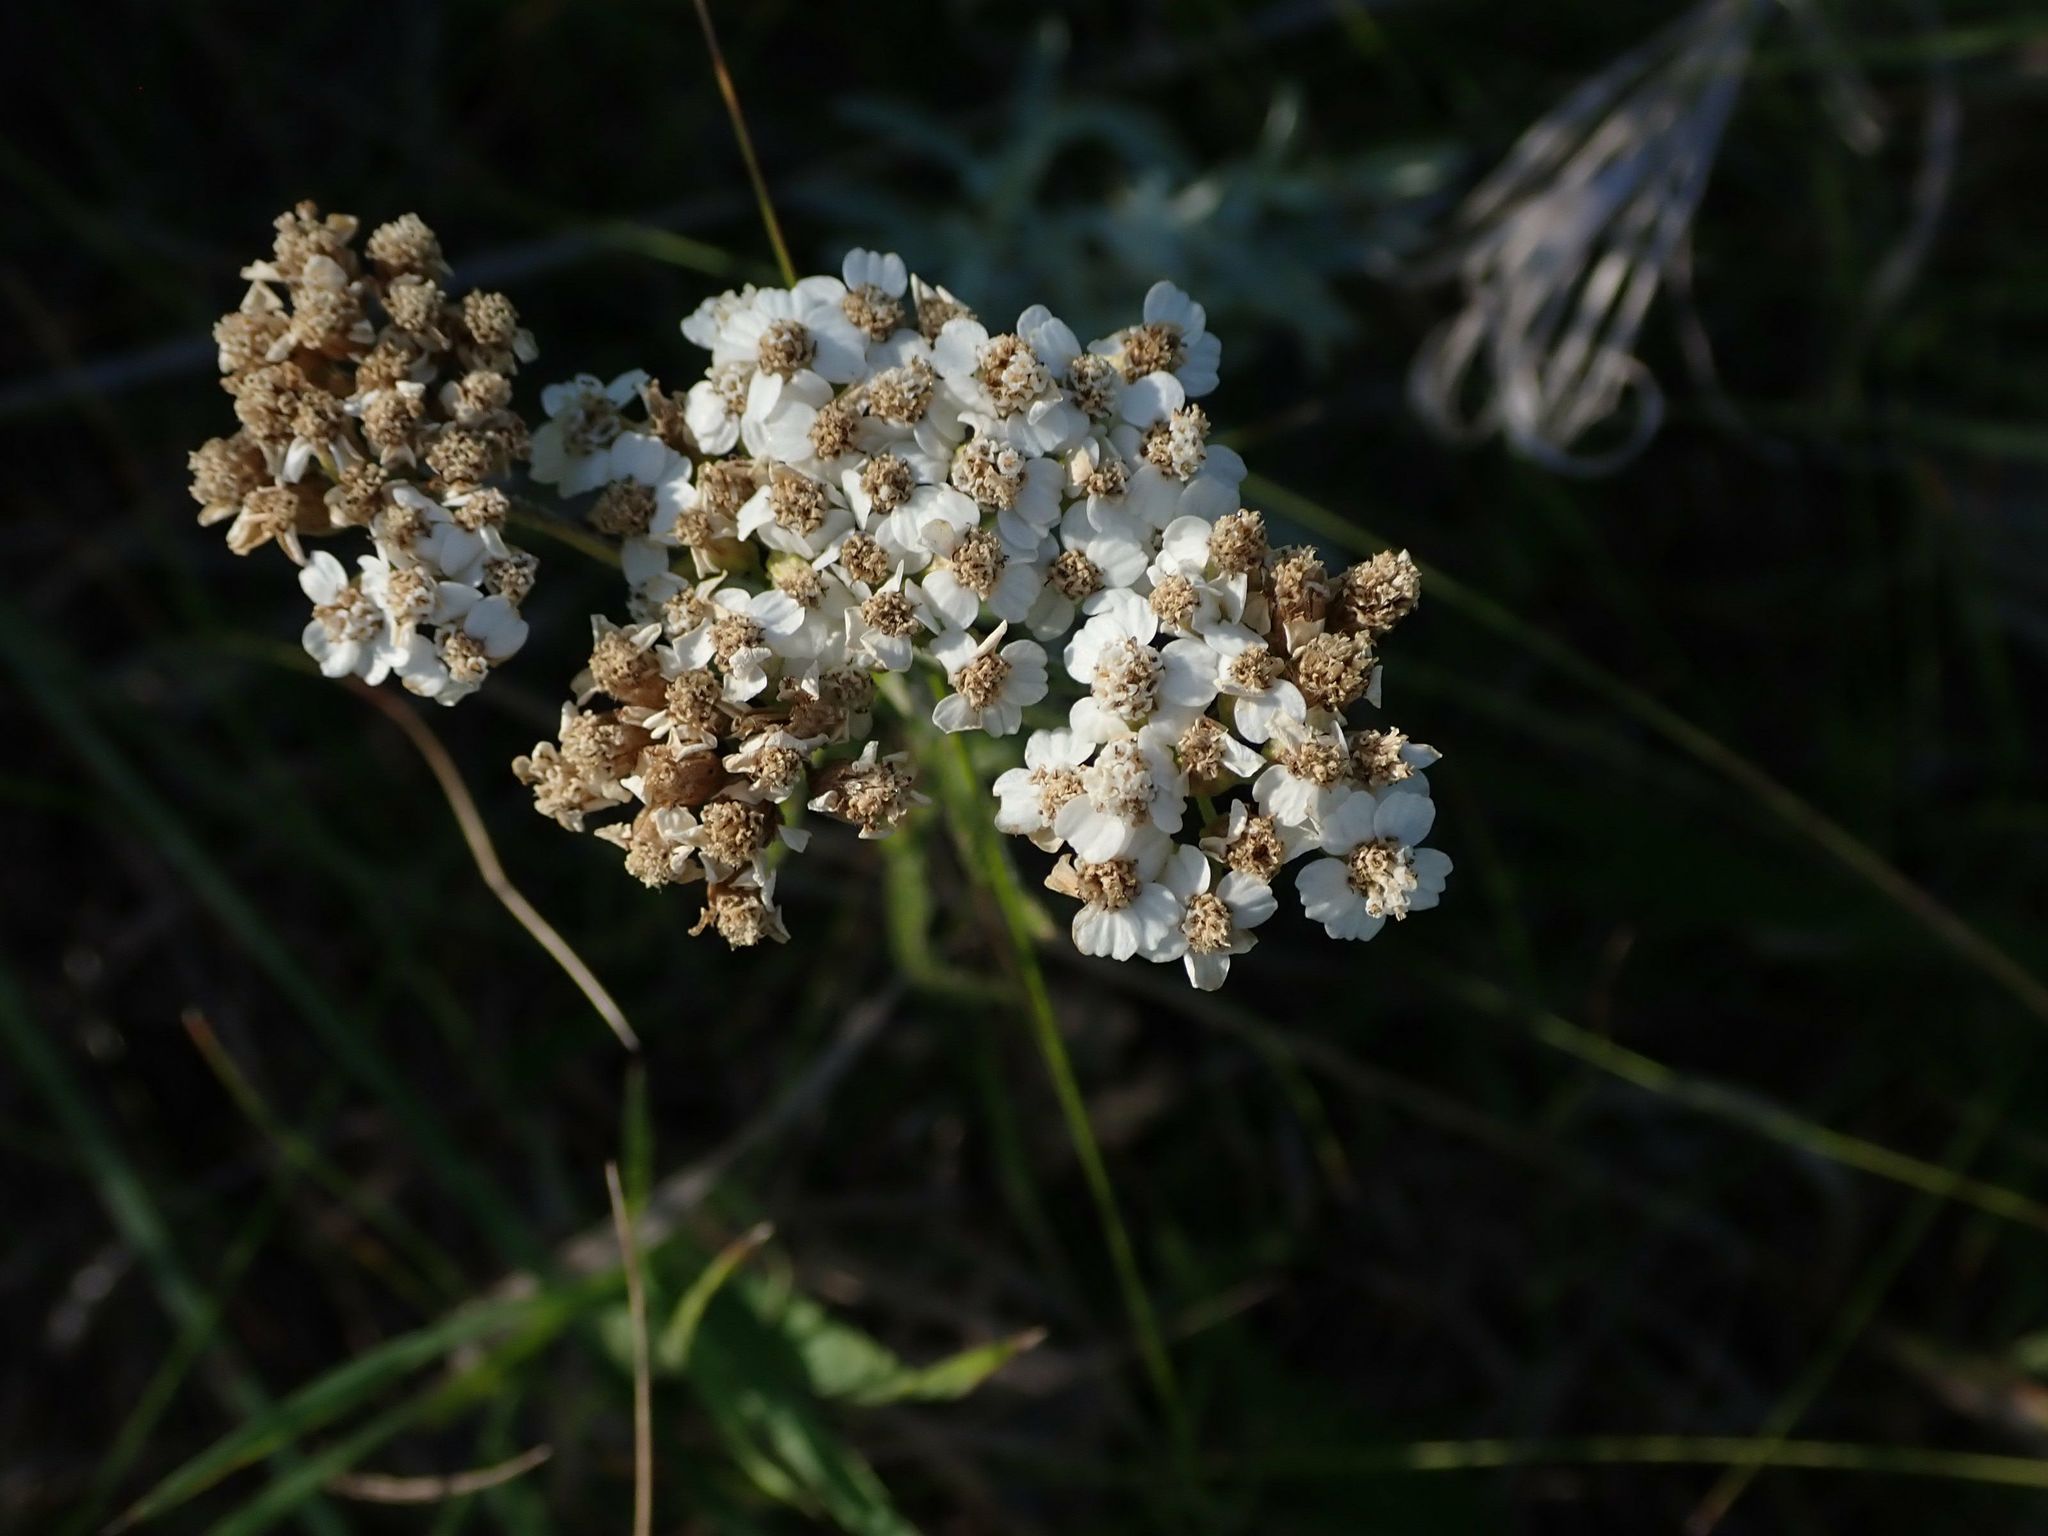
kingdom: Plantae
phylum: Tracheophyta
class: Magnoliopsida
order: Asterales
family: Asteraceae
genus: Achillea
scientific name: Achillea millefolium
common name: Yarrow
